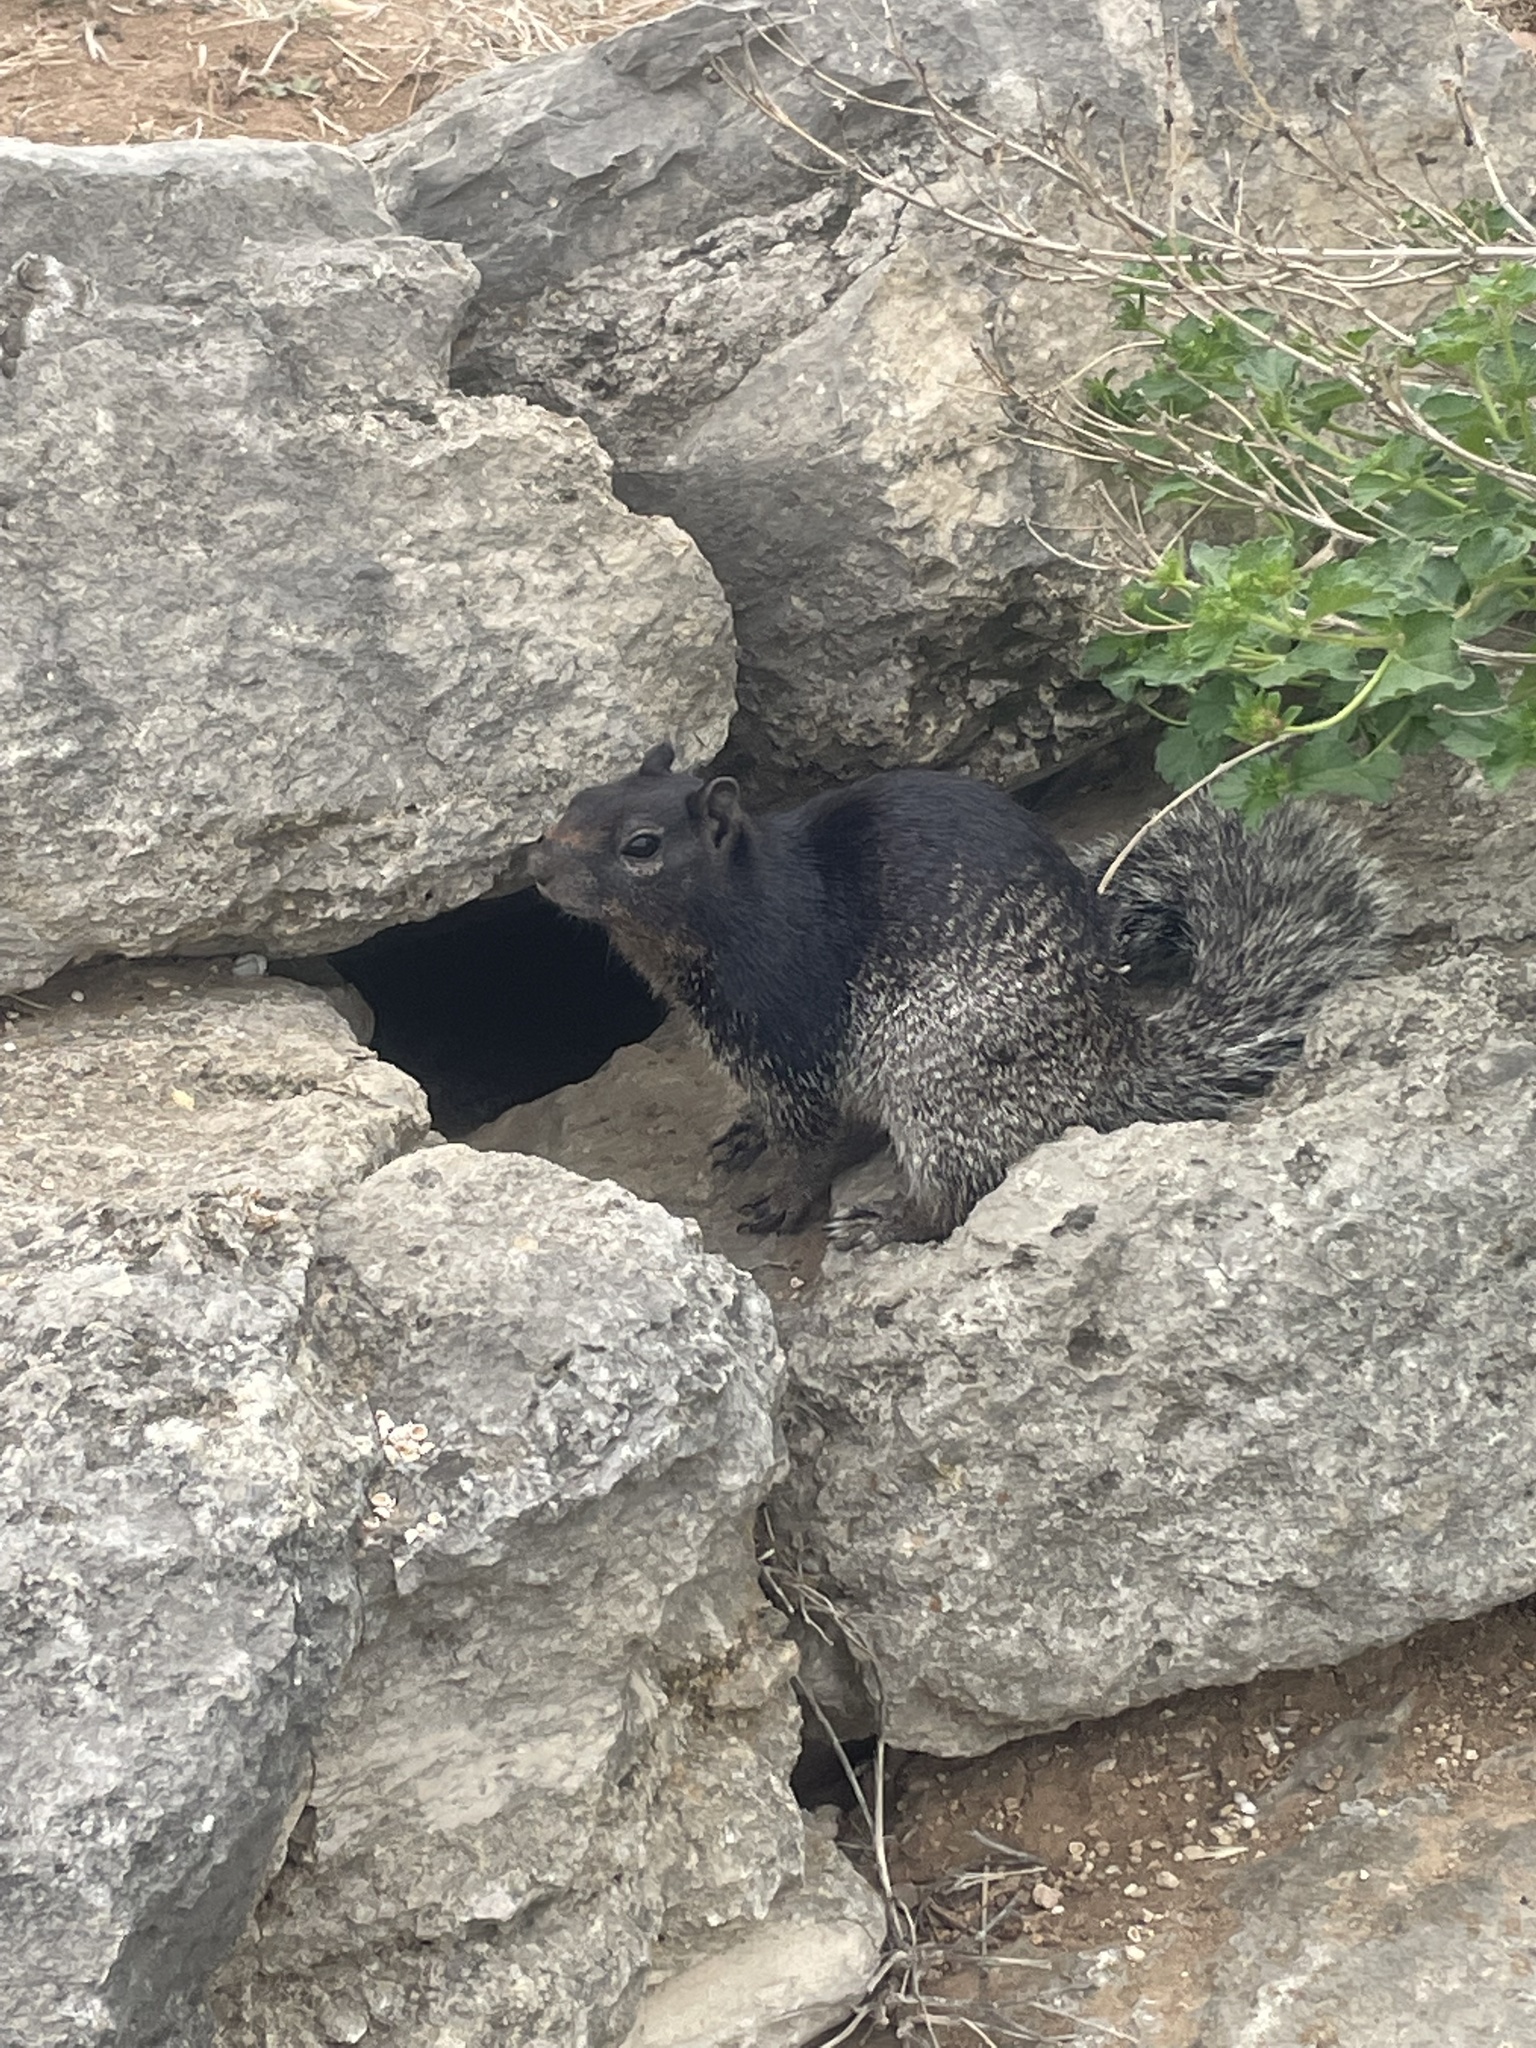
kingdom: Animalia
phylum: Chordata
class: Mammalia
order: Rodentia
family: Sciuridae
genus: Otospermophilus
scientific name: Otospermophilus variegatus
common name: Rock squirrel
